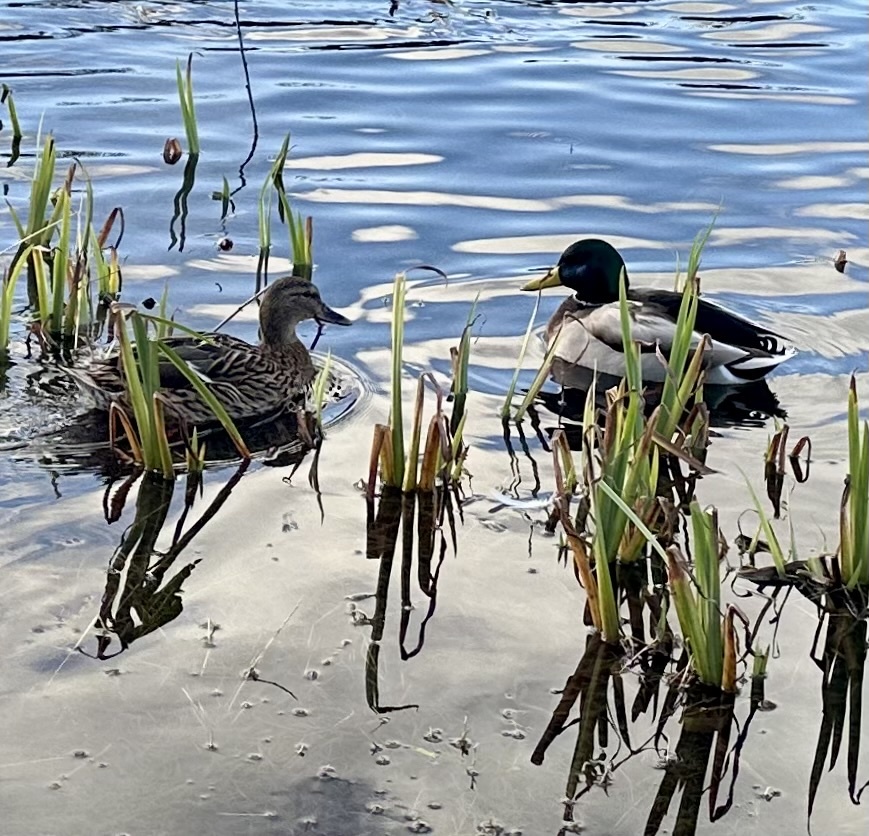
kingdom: Animalia
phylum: Chordata
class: Aves
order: Anseriformes
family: Anatidae
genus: Anas
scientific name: Anas platyrhynchos
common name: Mallard
